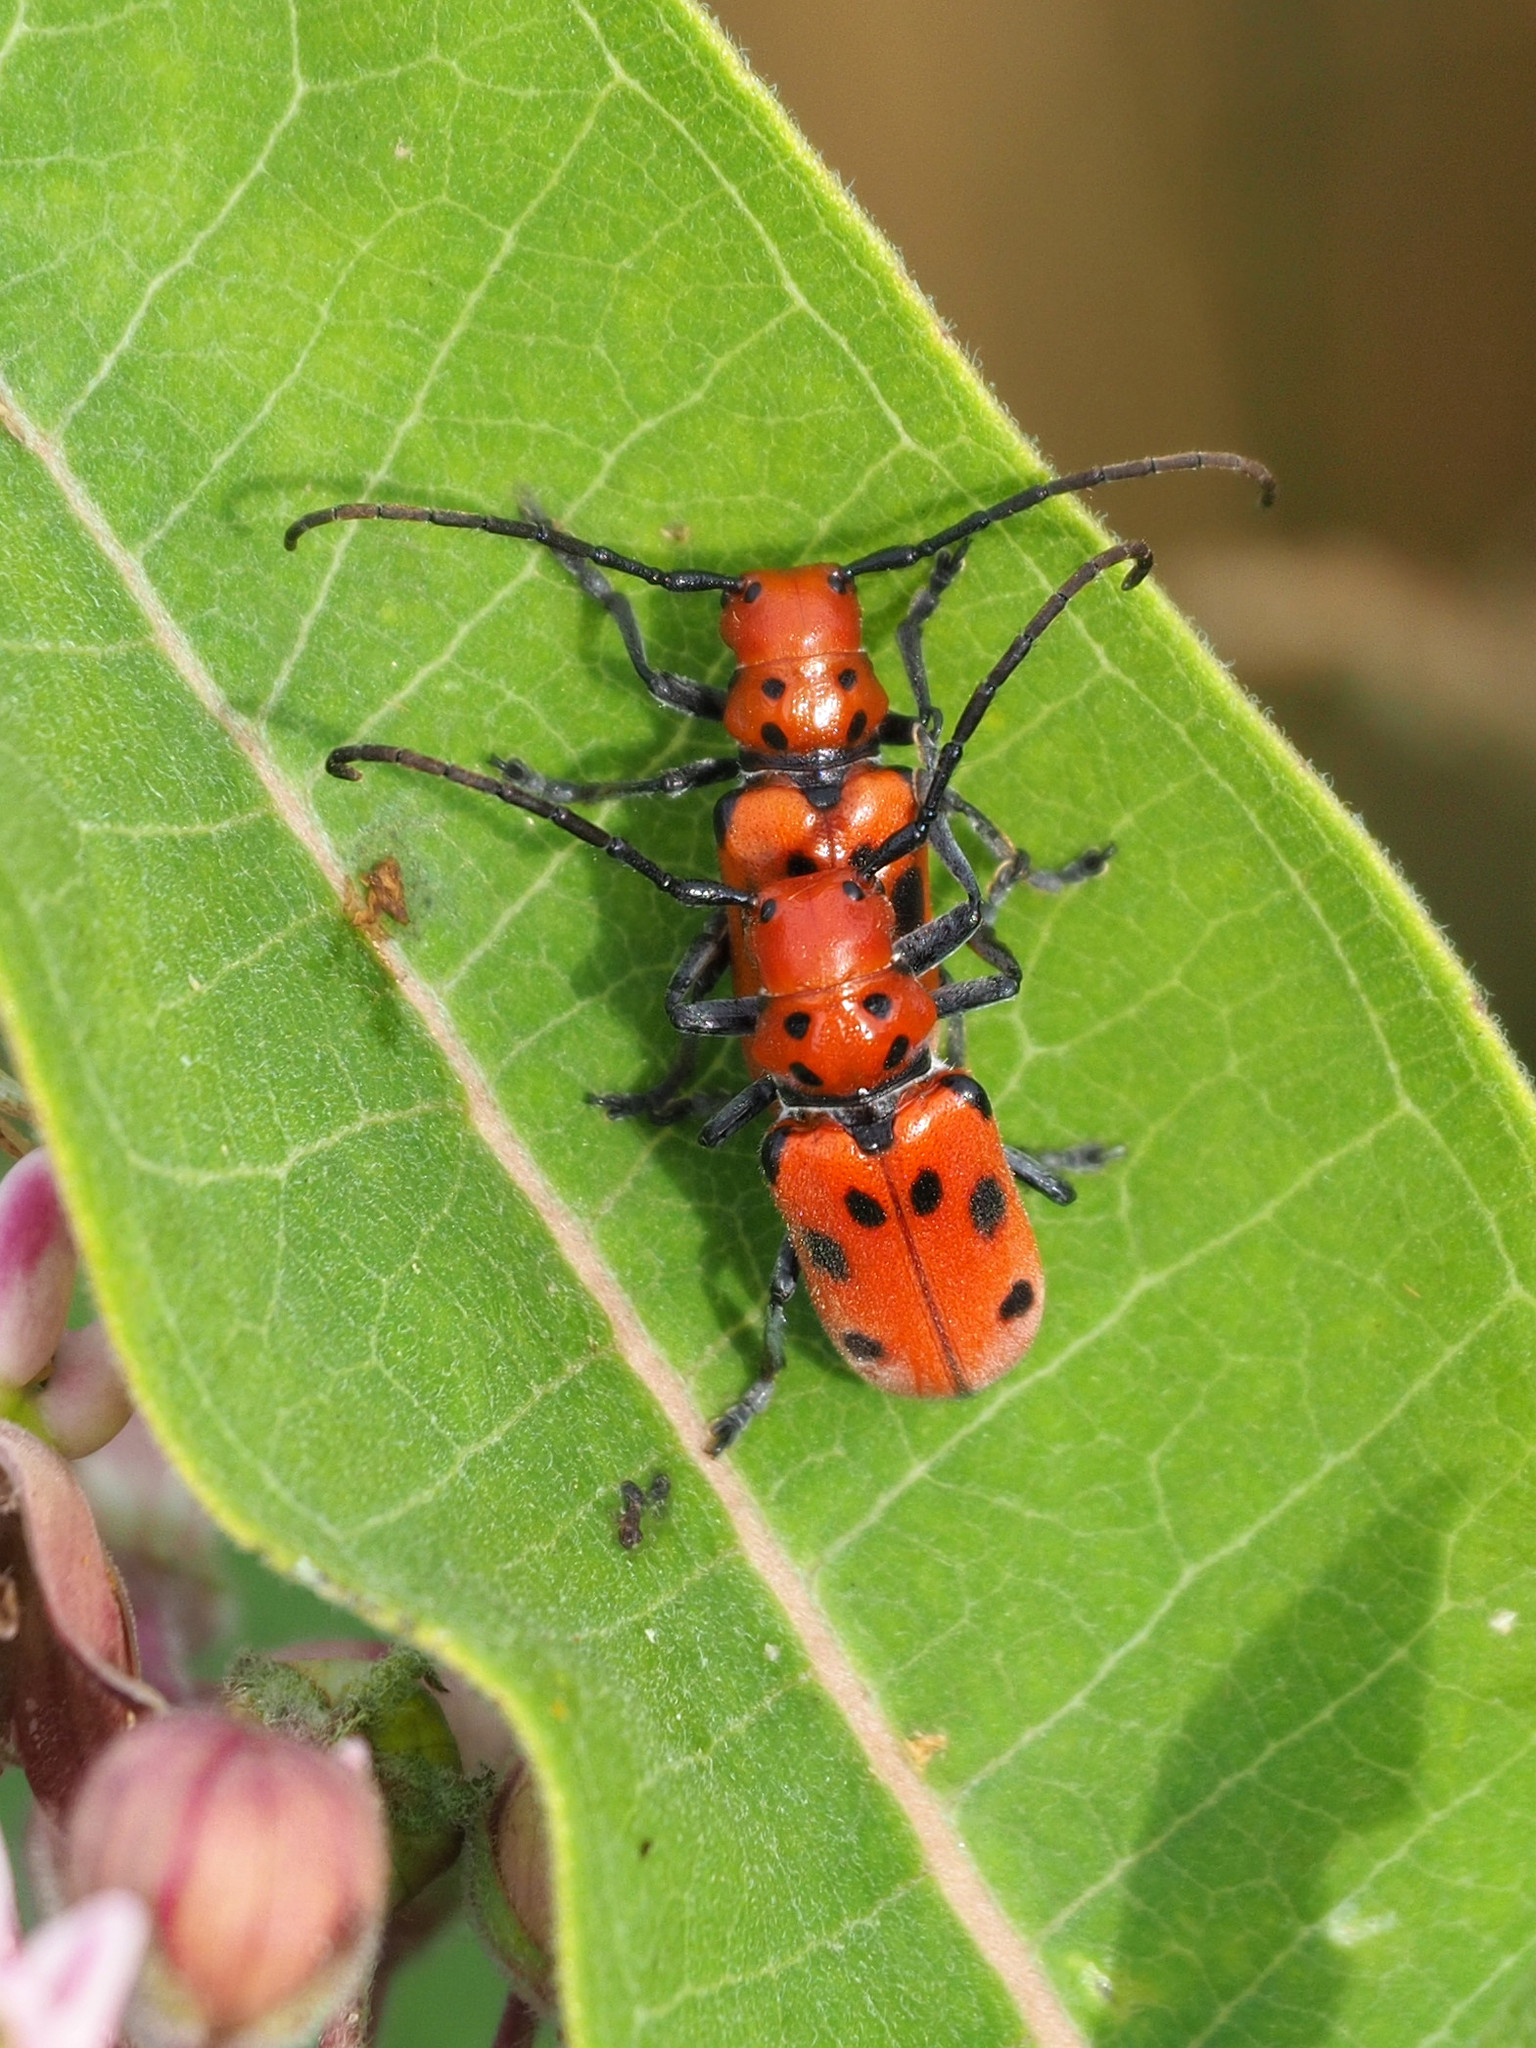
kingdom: Animalia
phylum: Arthropoda
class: Insecta
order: Coleoptera
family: Cerambycidae
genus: Tetraopes
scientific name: Tetraopes tetrophthalmus
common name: Red milkweed beetle
